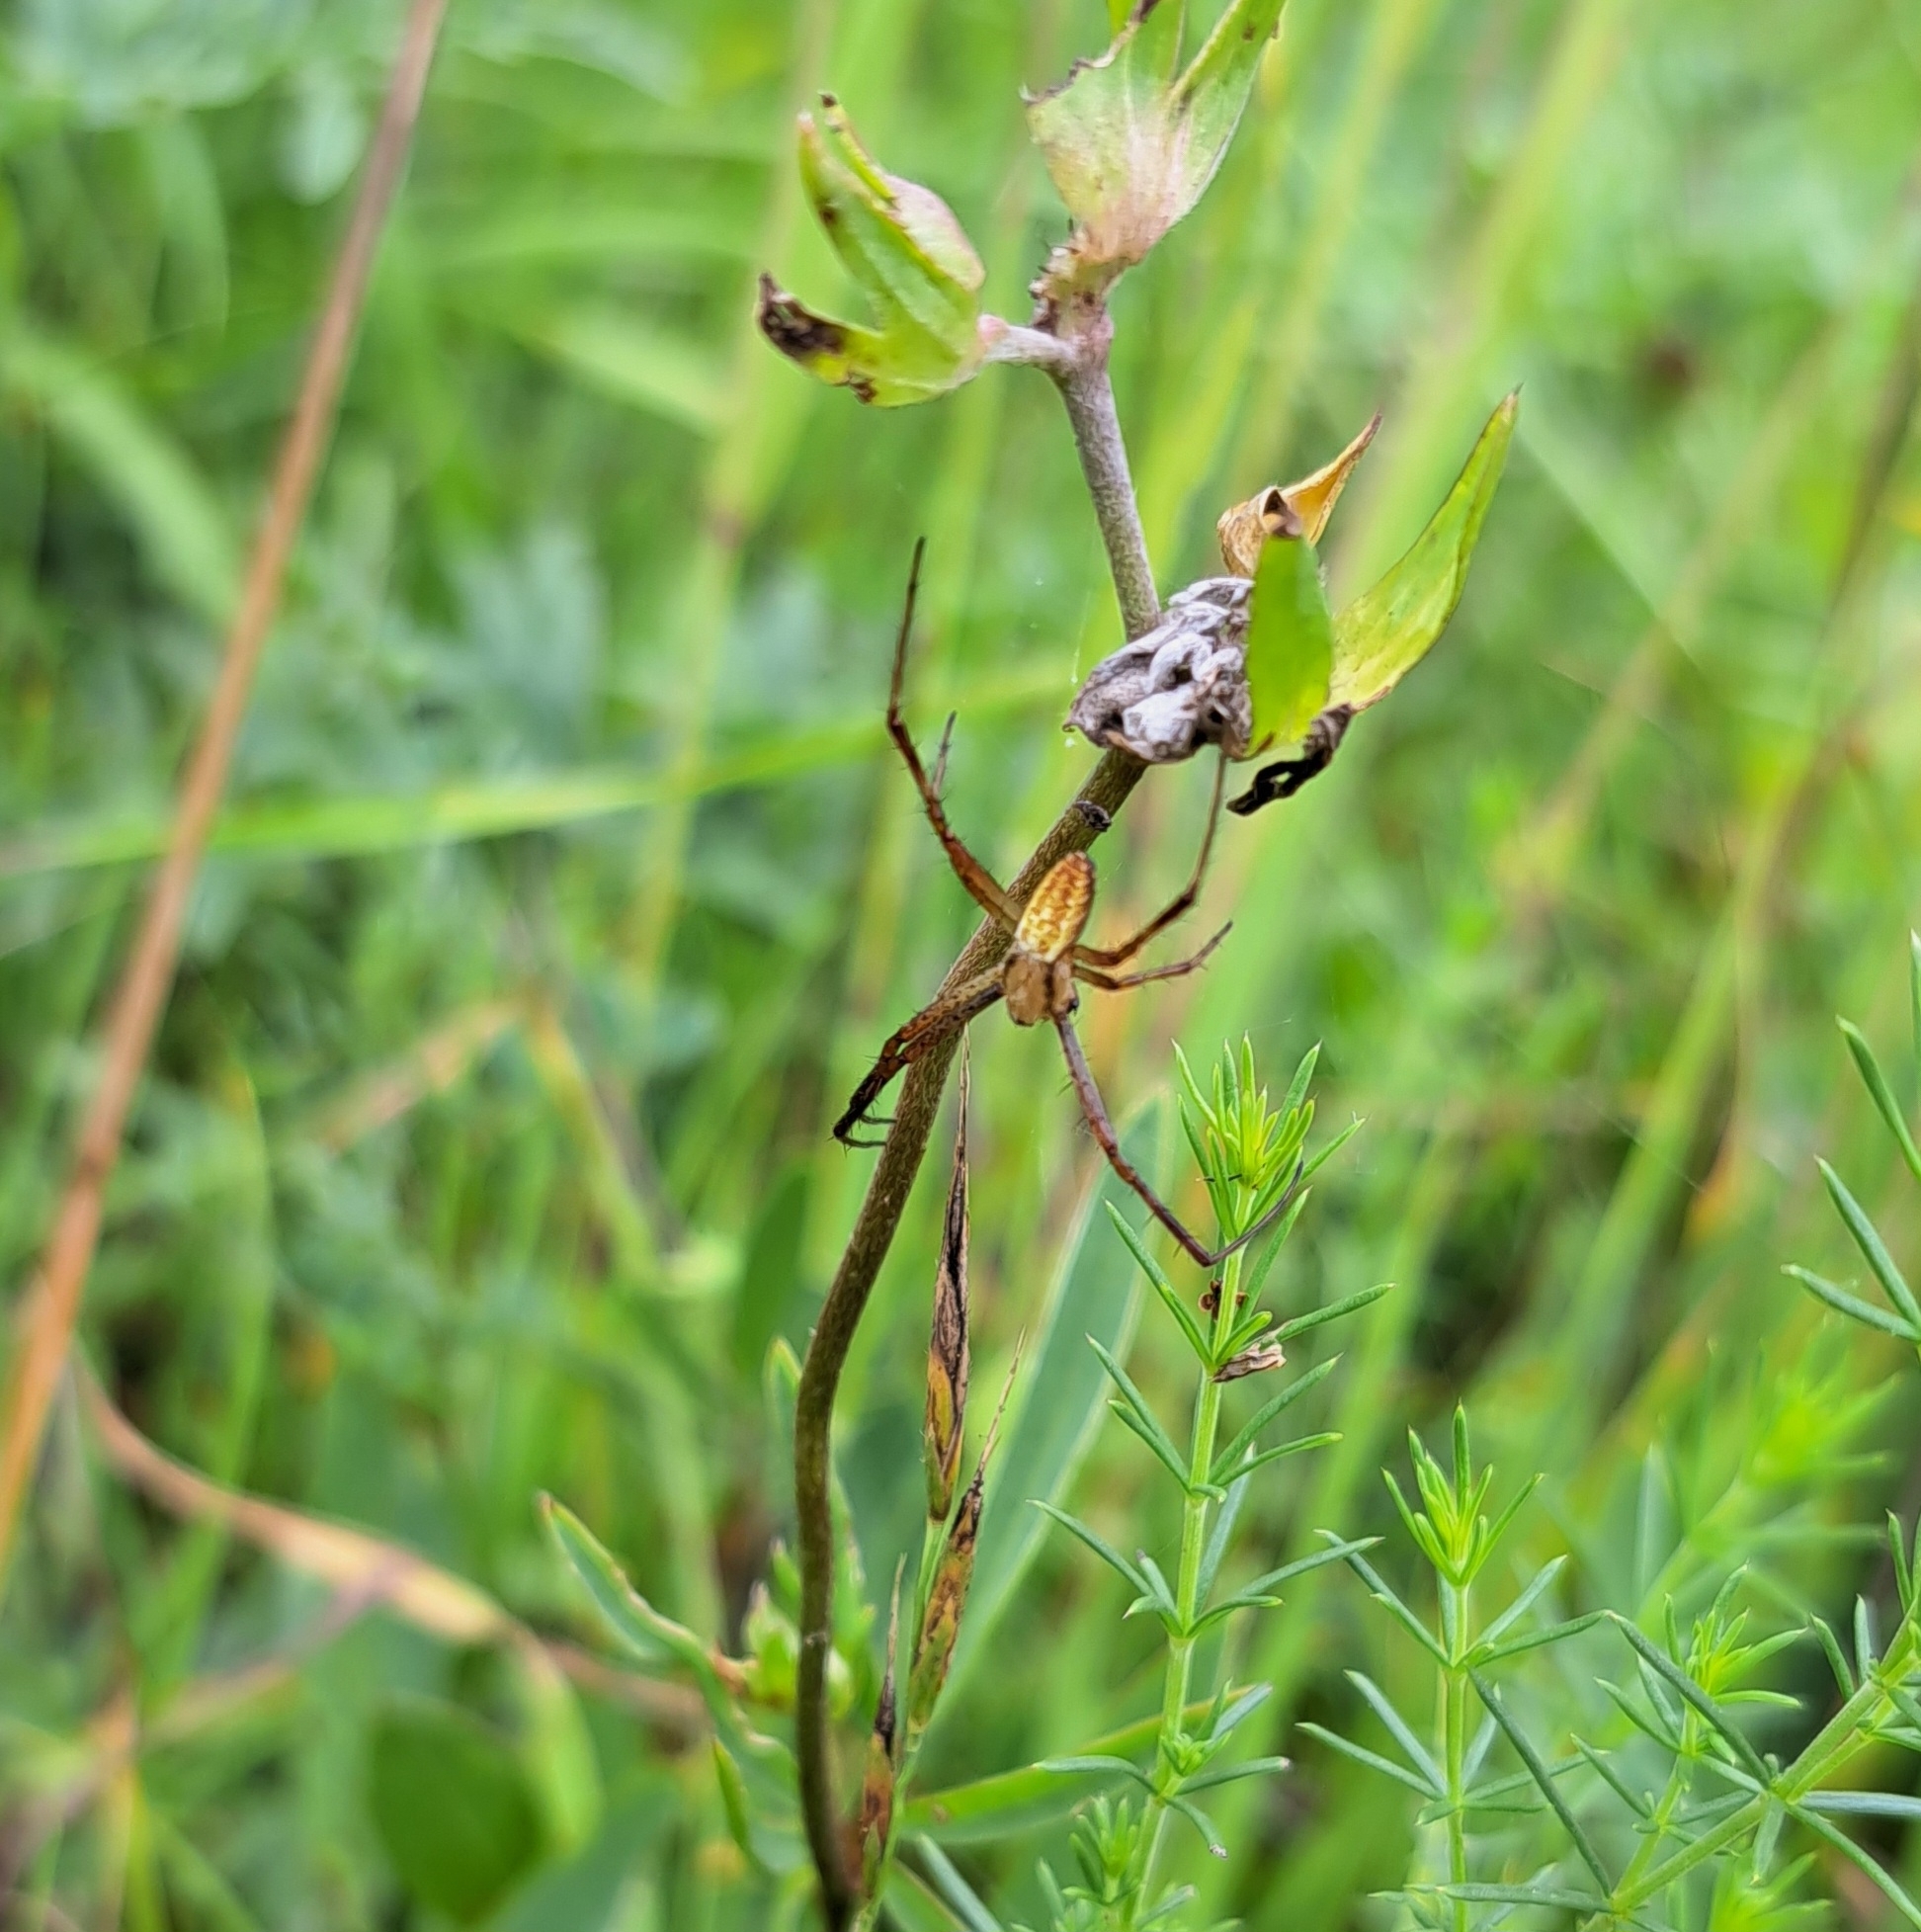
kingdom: Animalia
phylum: Arthropoda
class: Arachnida
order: Araneae
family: Araneidae
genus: Argiope
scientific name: Argiope bruennichi
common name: Wasp spider
